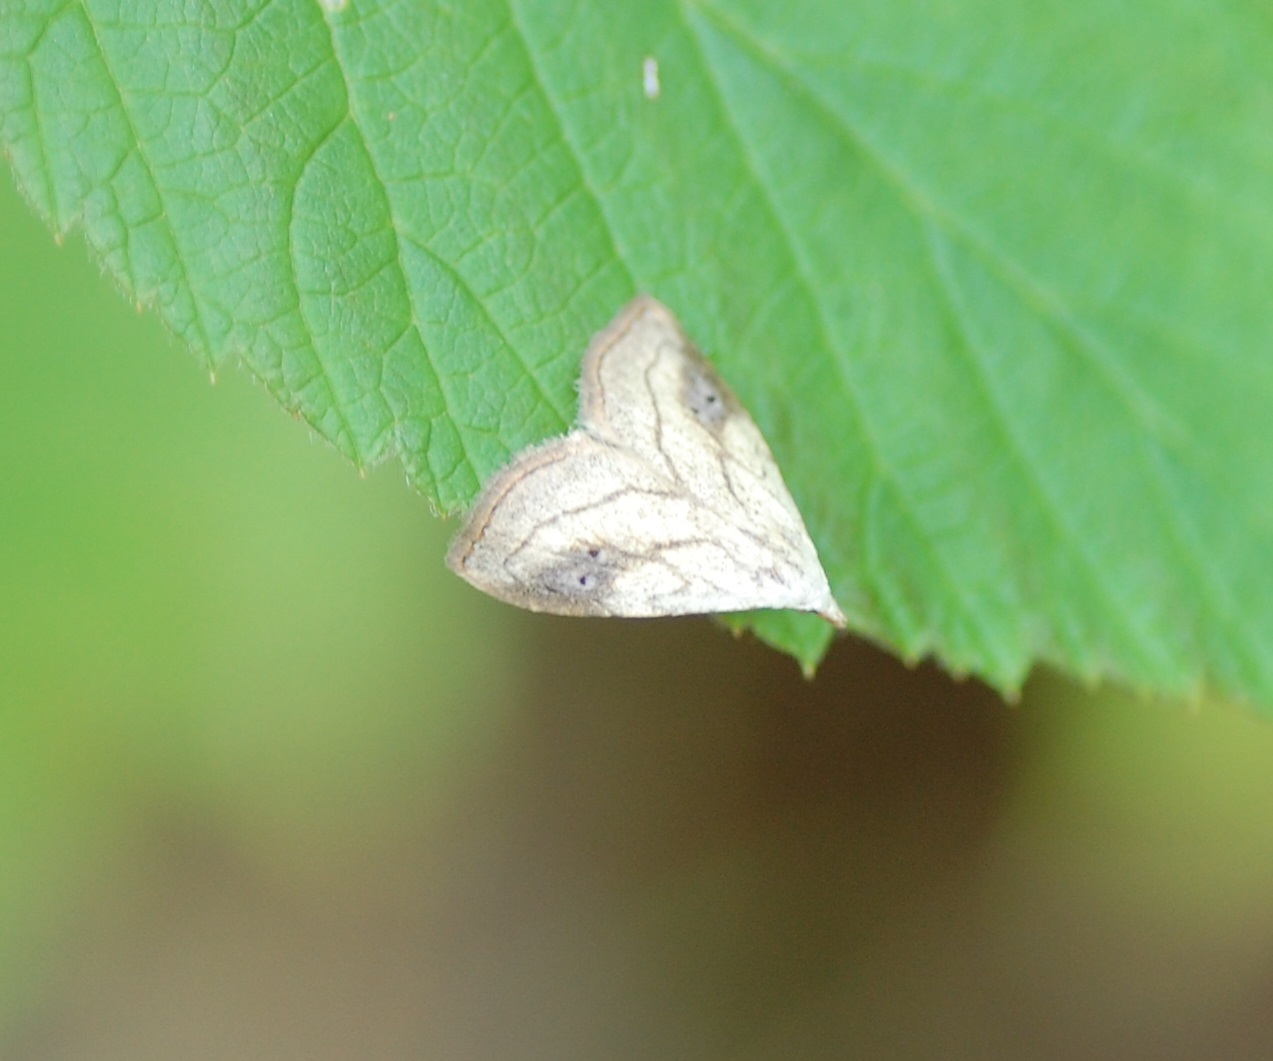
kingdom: Animalia
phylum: Arthropoda
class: Insecta
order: Lepidoptera
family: Erebidae
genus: Rivula
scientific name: Rivula propinqualis
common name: Spotted grass moth
